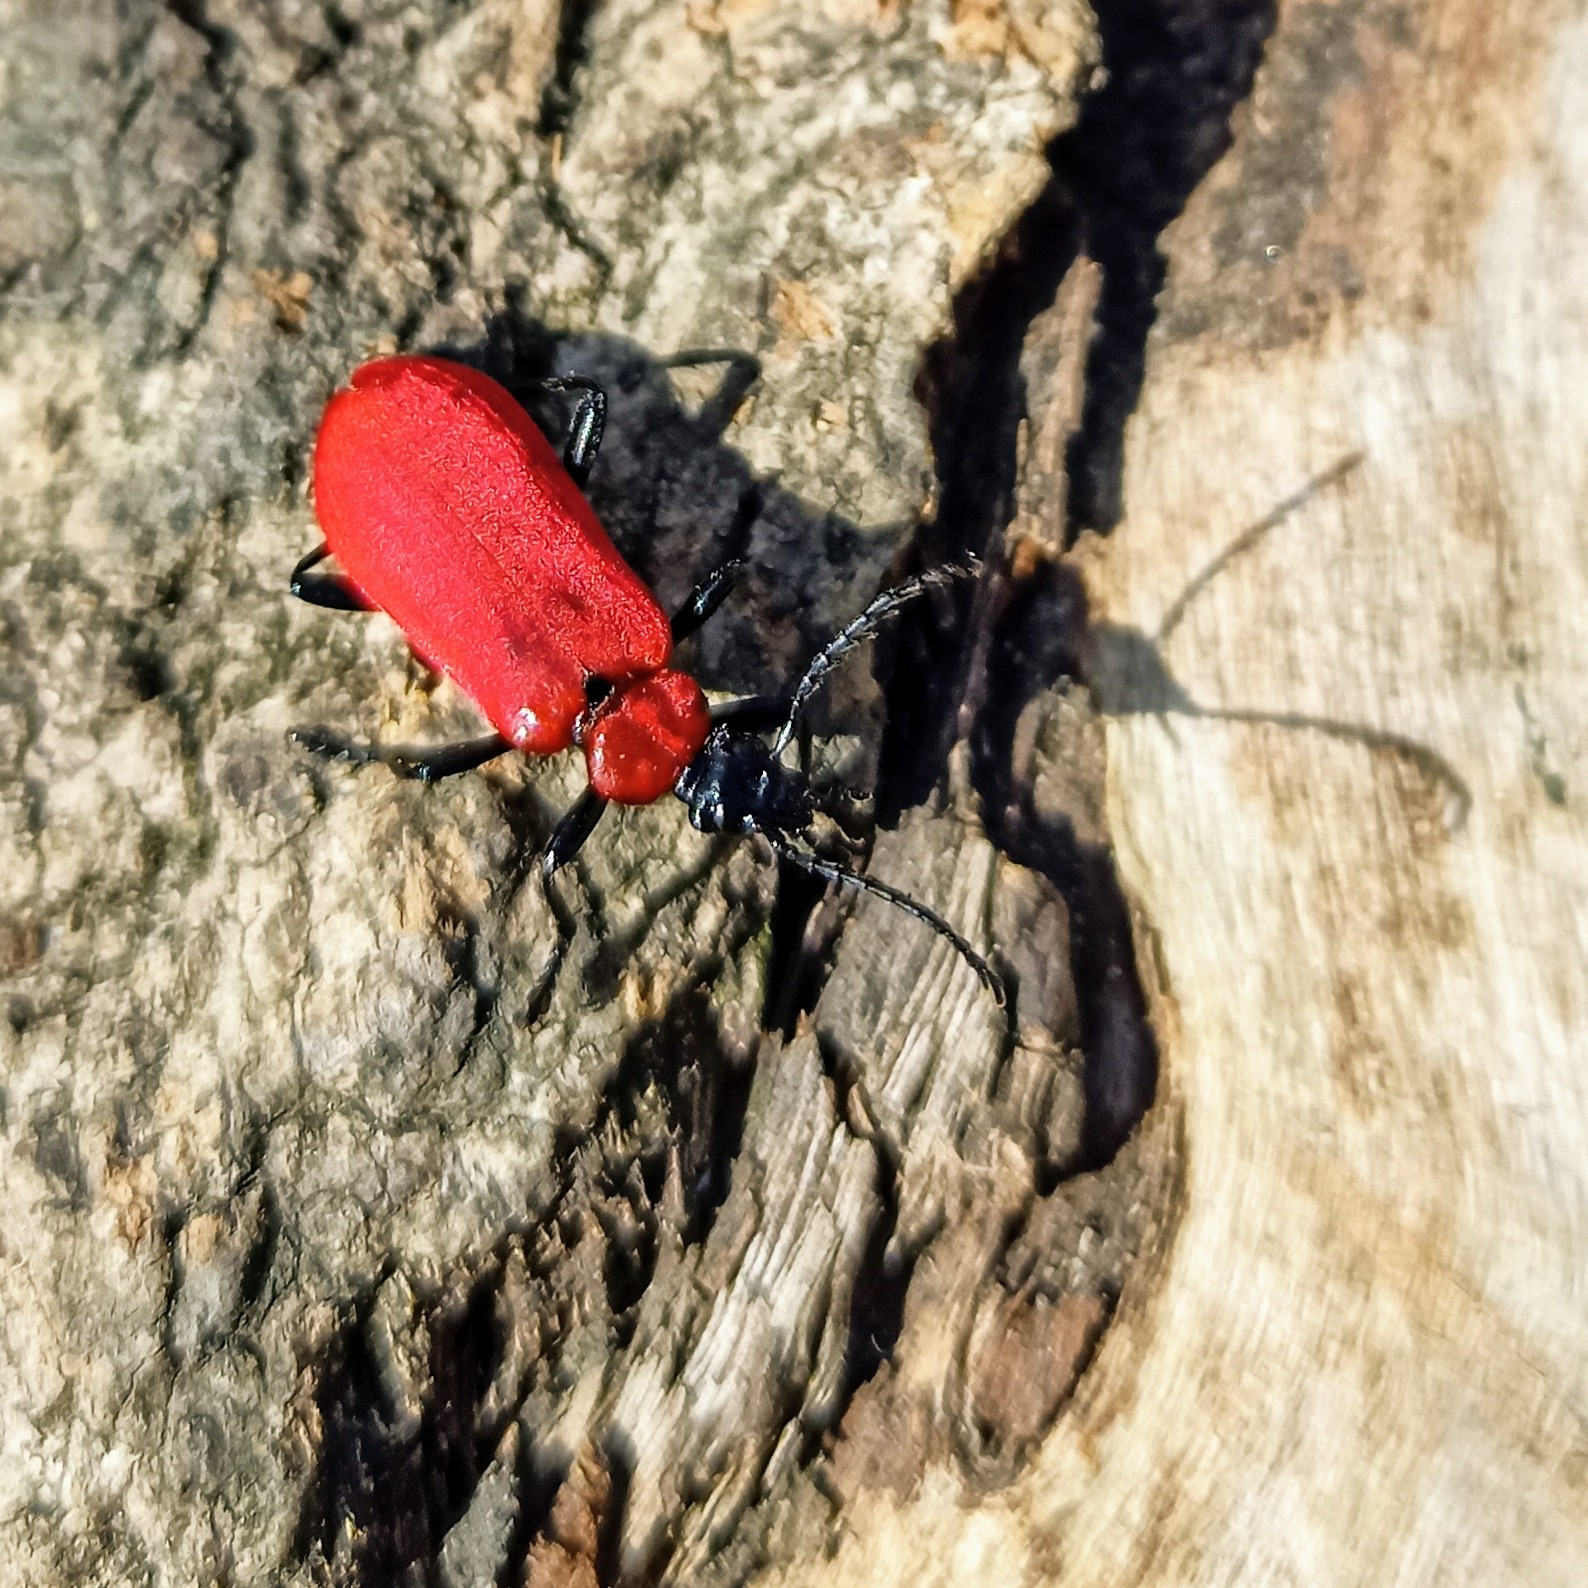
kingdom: Animalia
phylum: Arthropoda
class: Insecta
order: Coleoptera
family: Pyrochroidae
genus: Pyrochroa
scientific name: Pyrochroa coccinea
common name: Black-headed cardinal beetle
